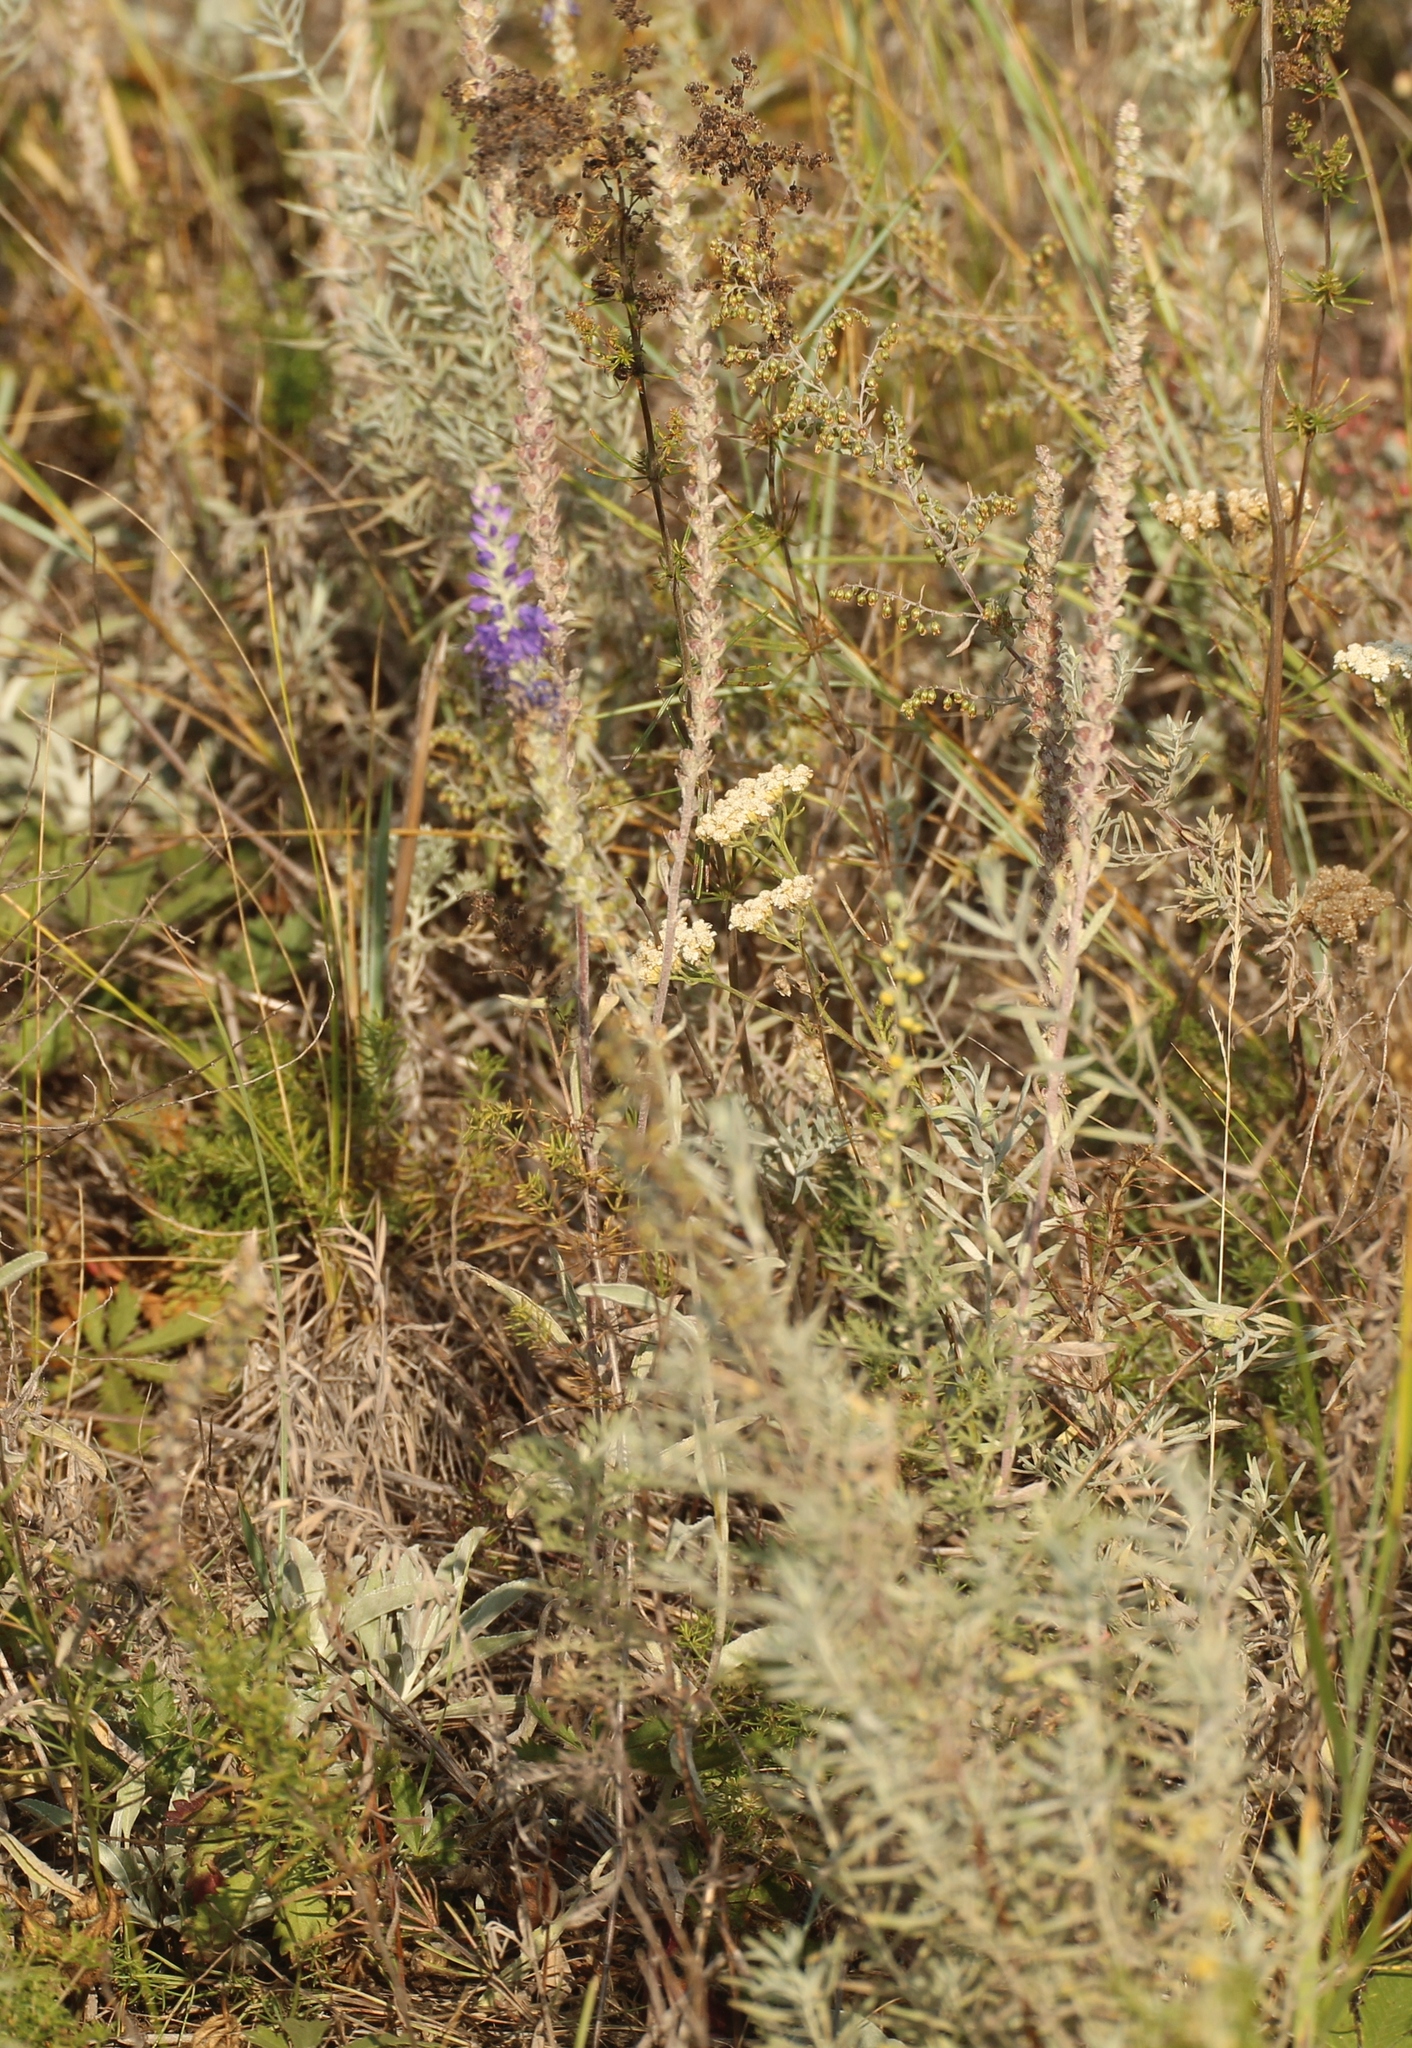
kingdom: Plantae
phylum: Tracheophyta
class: Magnoliopsida
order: Lamiales
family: Plantaginaceae
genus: Veronica
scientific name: Veronica incana
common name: Silver speedwell
